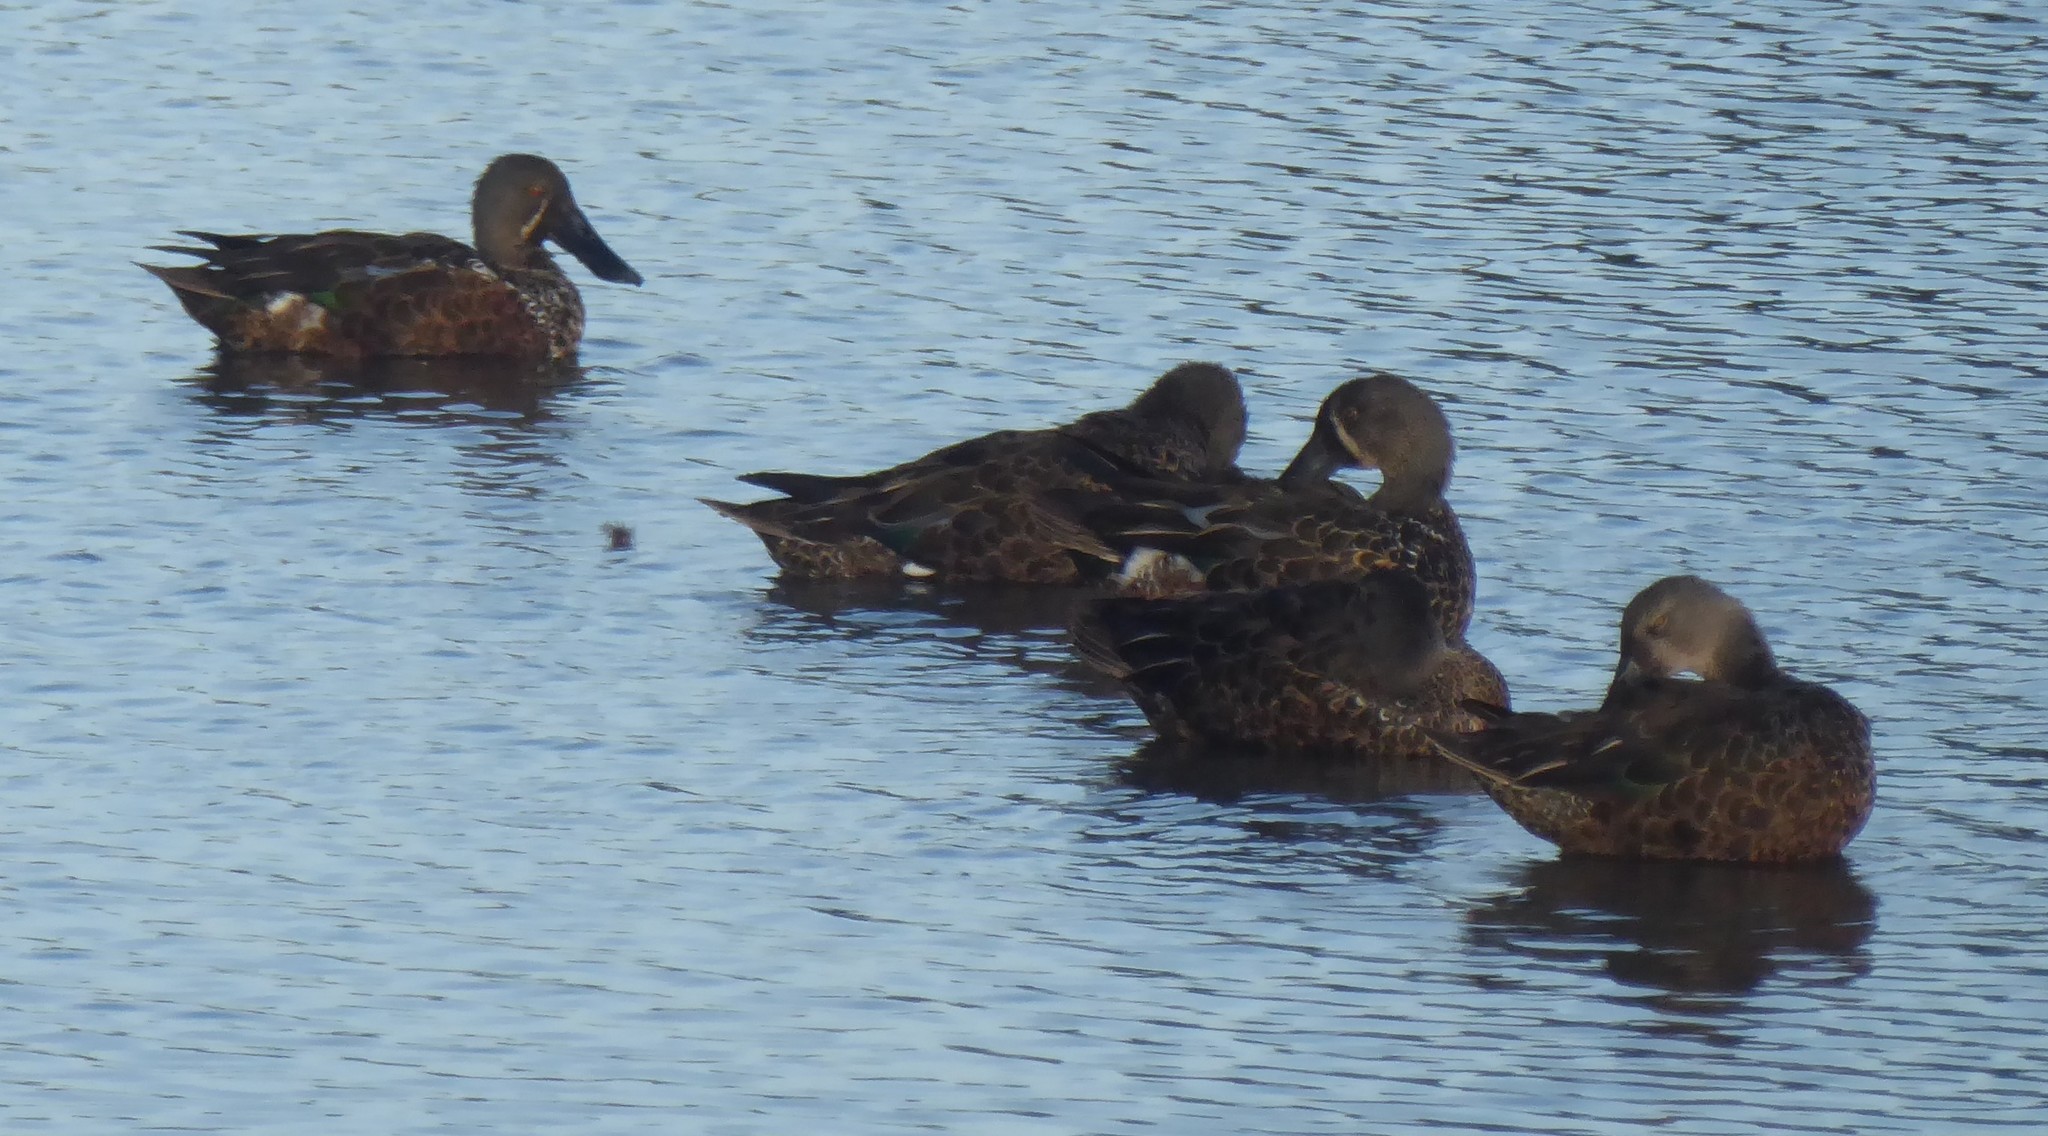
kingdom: Animalia
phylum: Chordata
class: Aves
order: Anseriformes
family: Anatidae
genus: Spatula
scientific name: Spatula rhynchotis
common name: Australian shoveler
